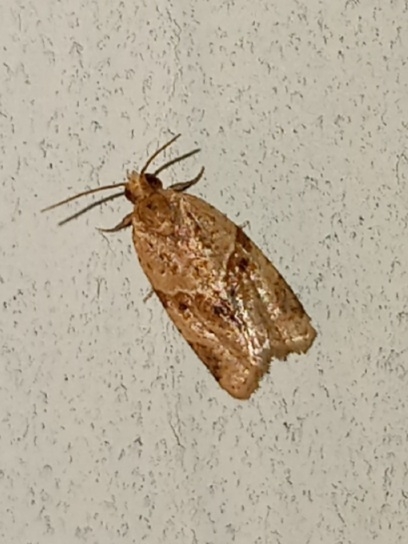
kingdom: Animalia
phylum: Arthropoda
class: Insecta
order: Lepidoptera
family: Tortricidae
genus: Clepsis
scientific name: Clepsis peritana
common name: Garden tortrix
